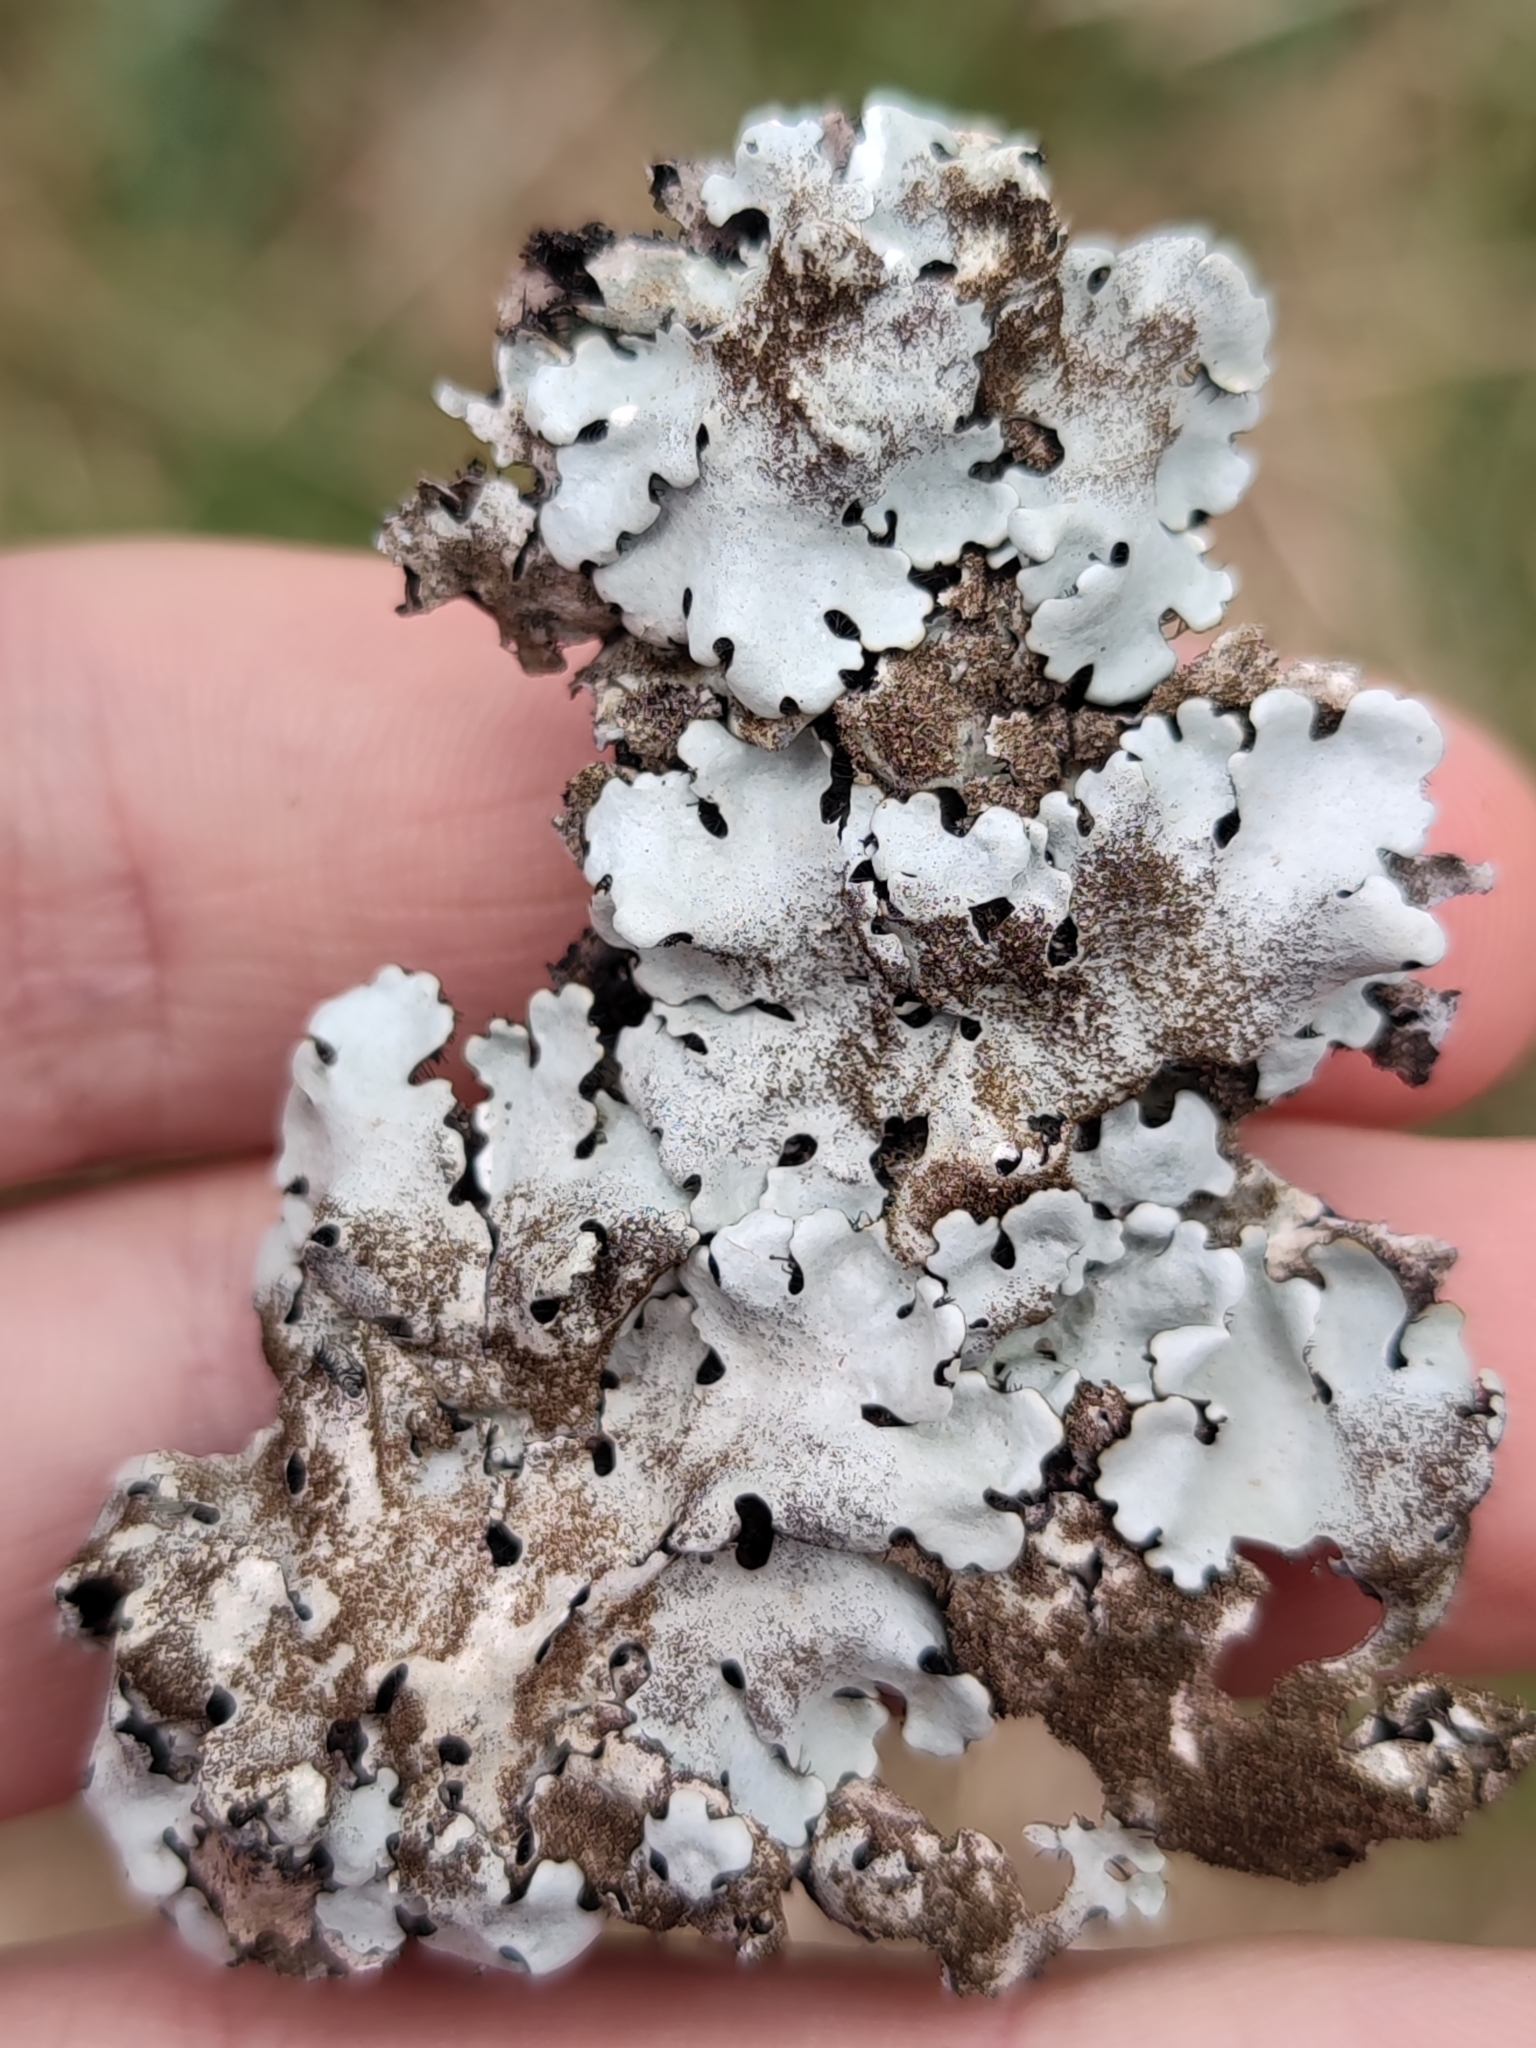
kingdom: Fungi
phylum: Ascomycota
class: Lecanoromycetes
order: Lecanorales
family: Parmeliaceae
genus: Parmelina
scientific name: Parmelina tiliacea
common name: Linden shield lichen
